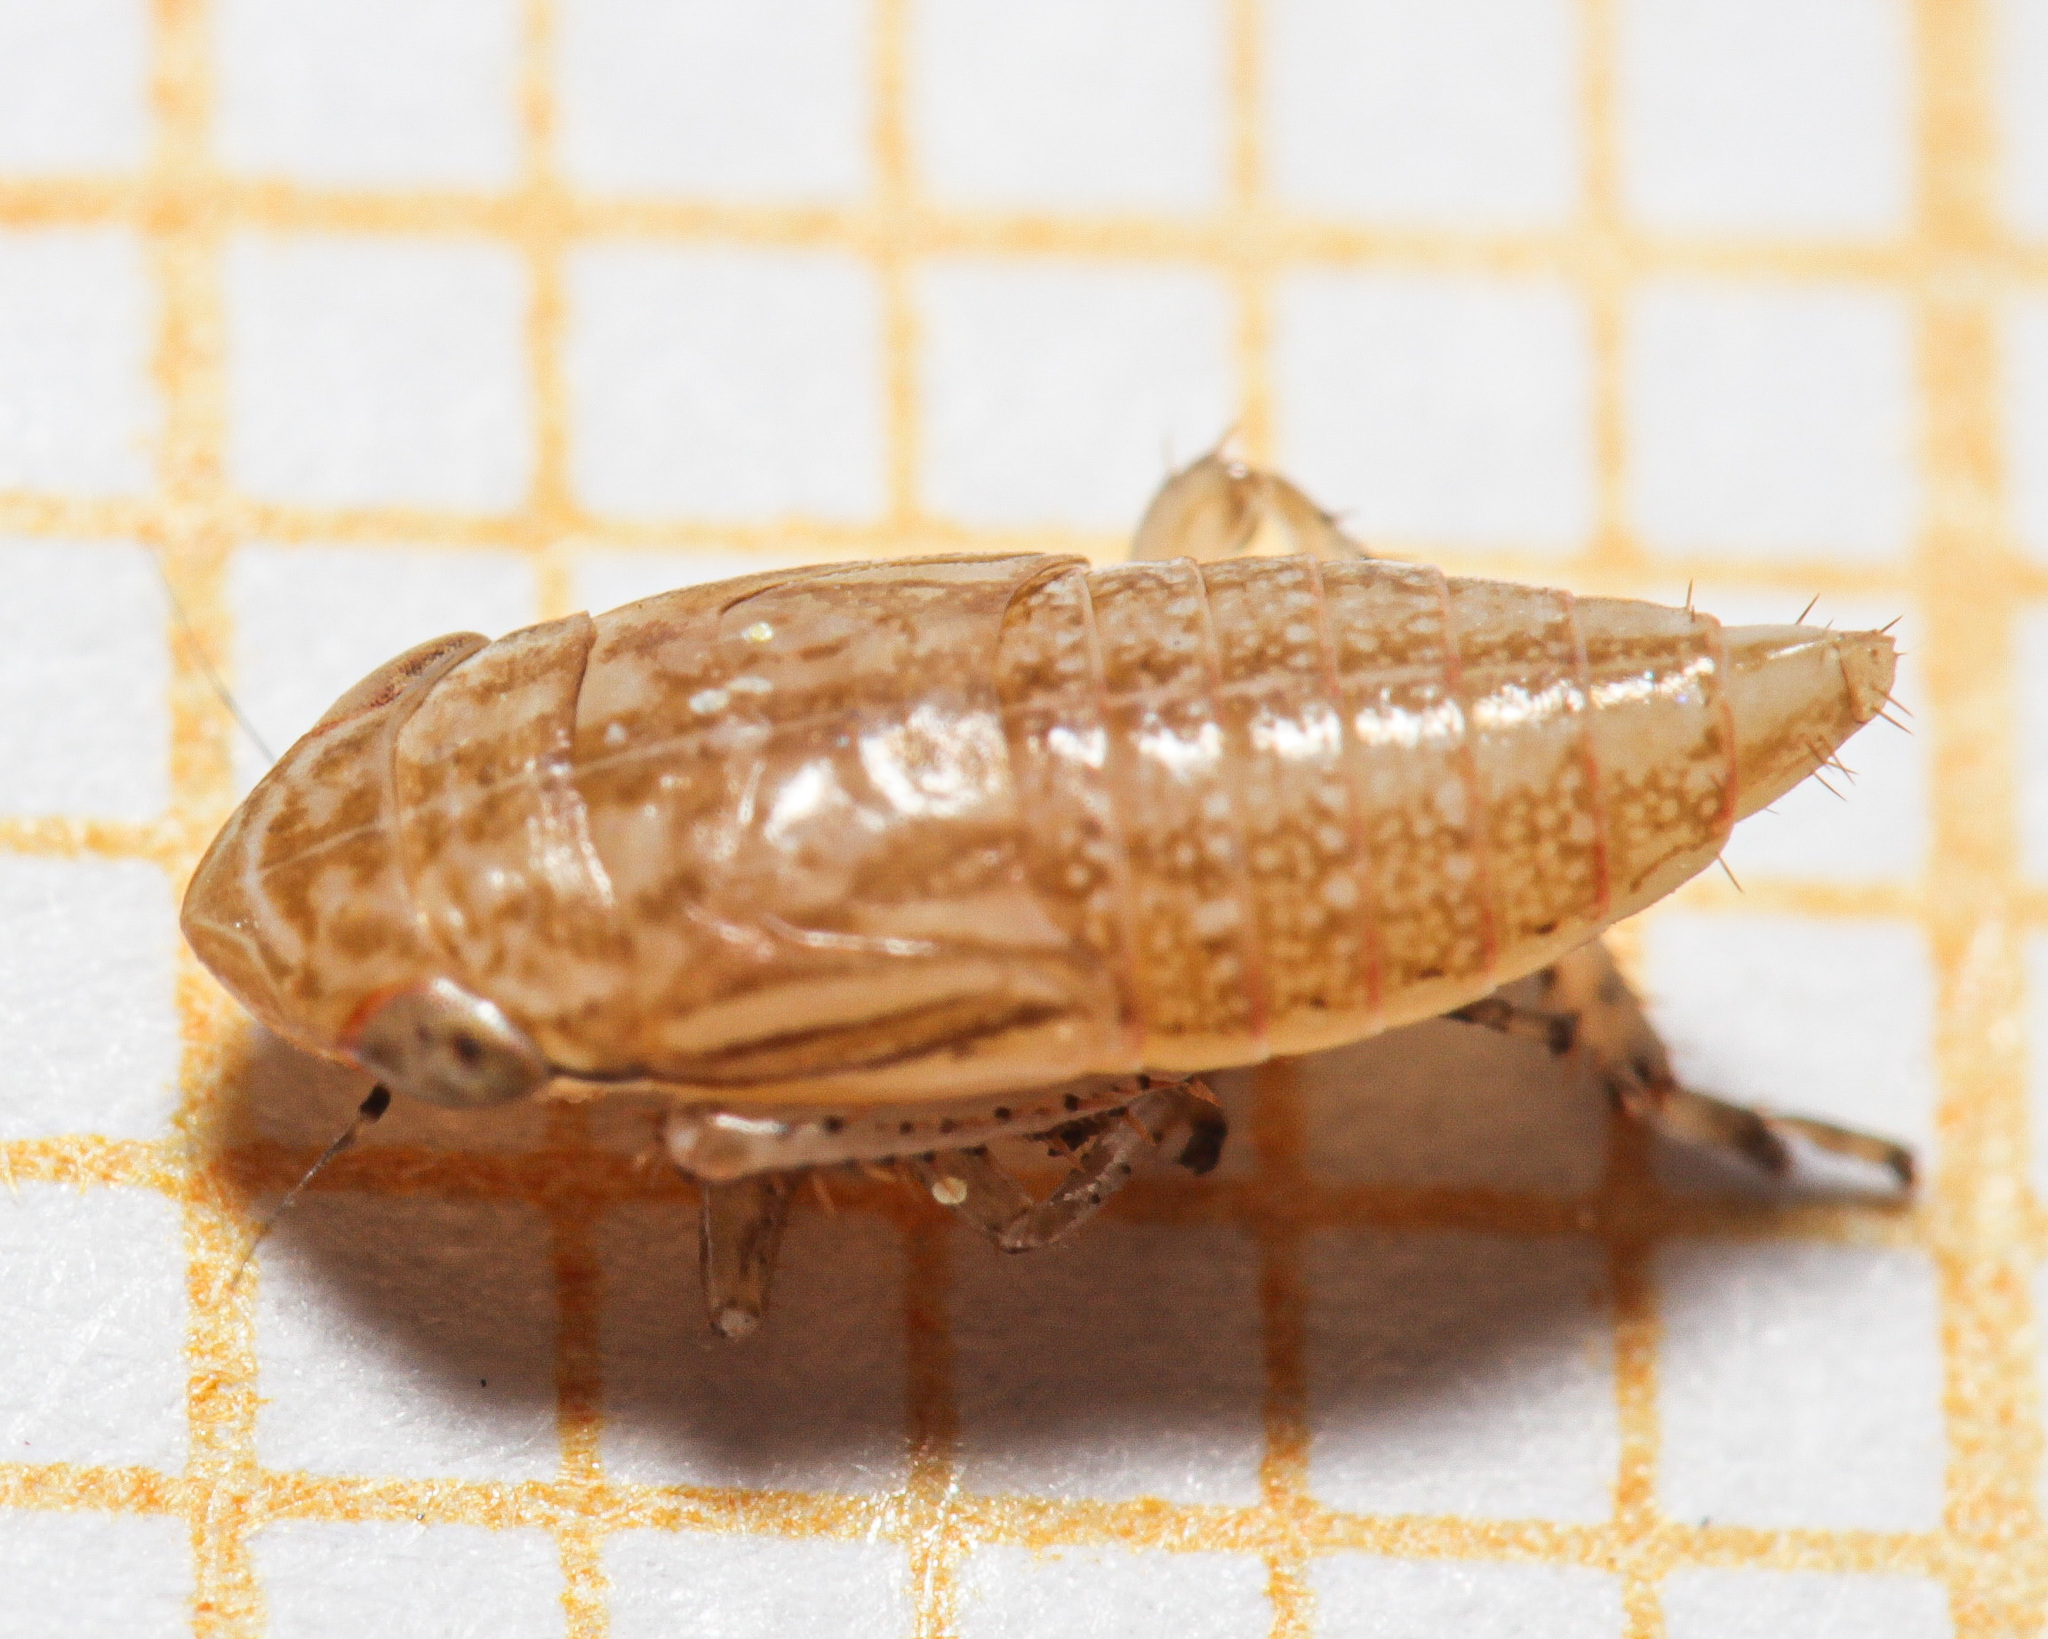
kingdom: Animalia
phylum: Arthropoda
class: Insecta
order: Hemiptera
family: Cicadellidae
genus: Macustus
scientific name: Macustus grisescens
